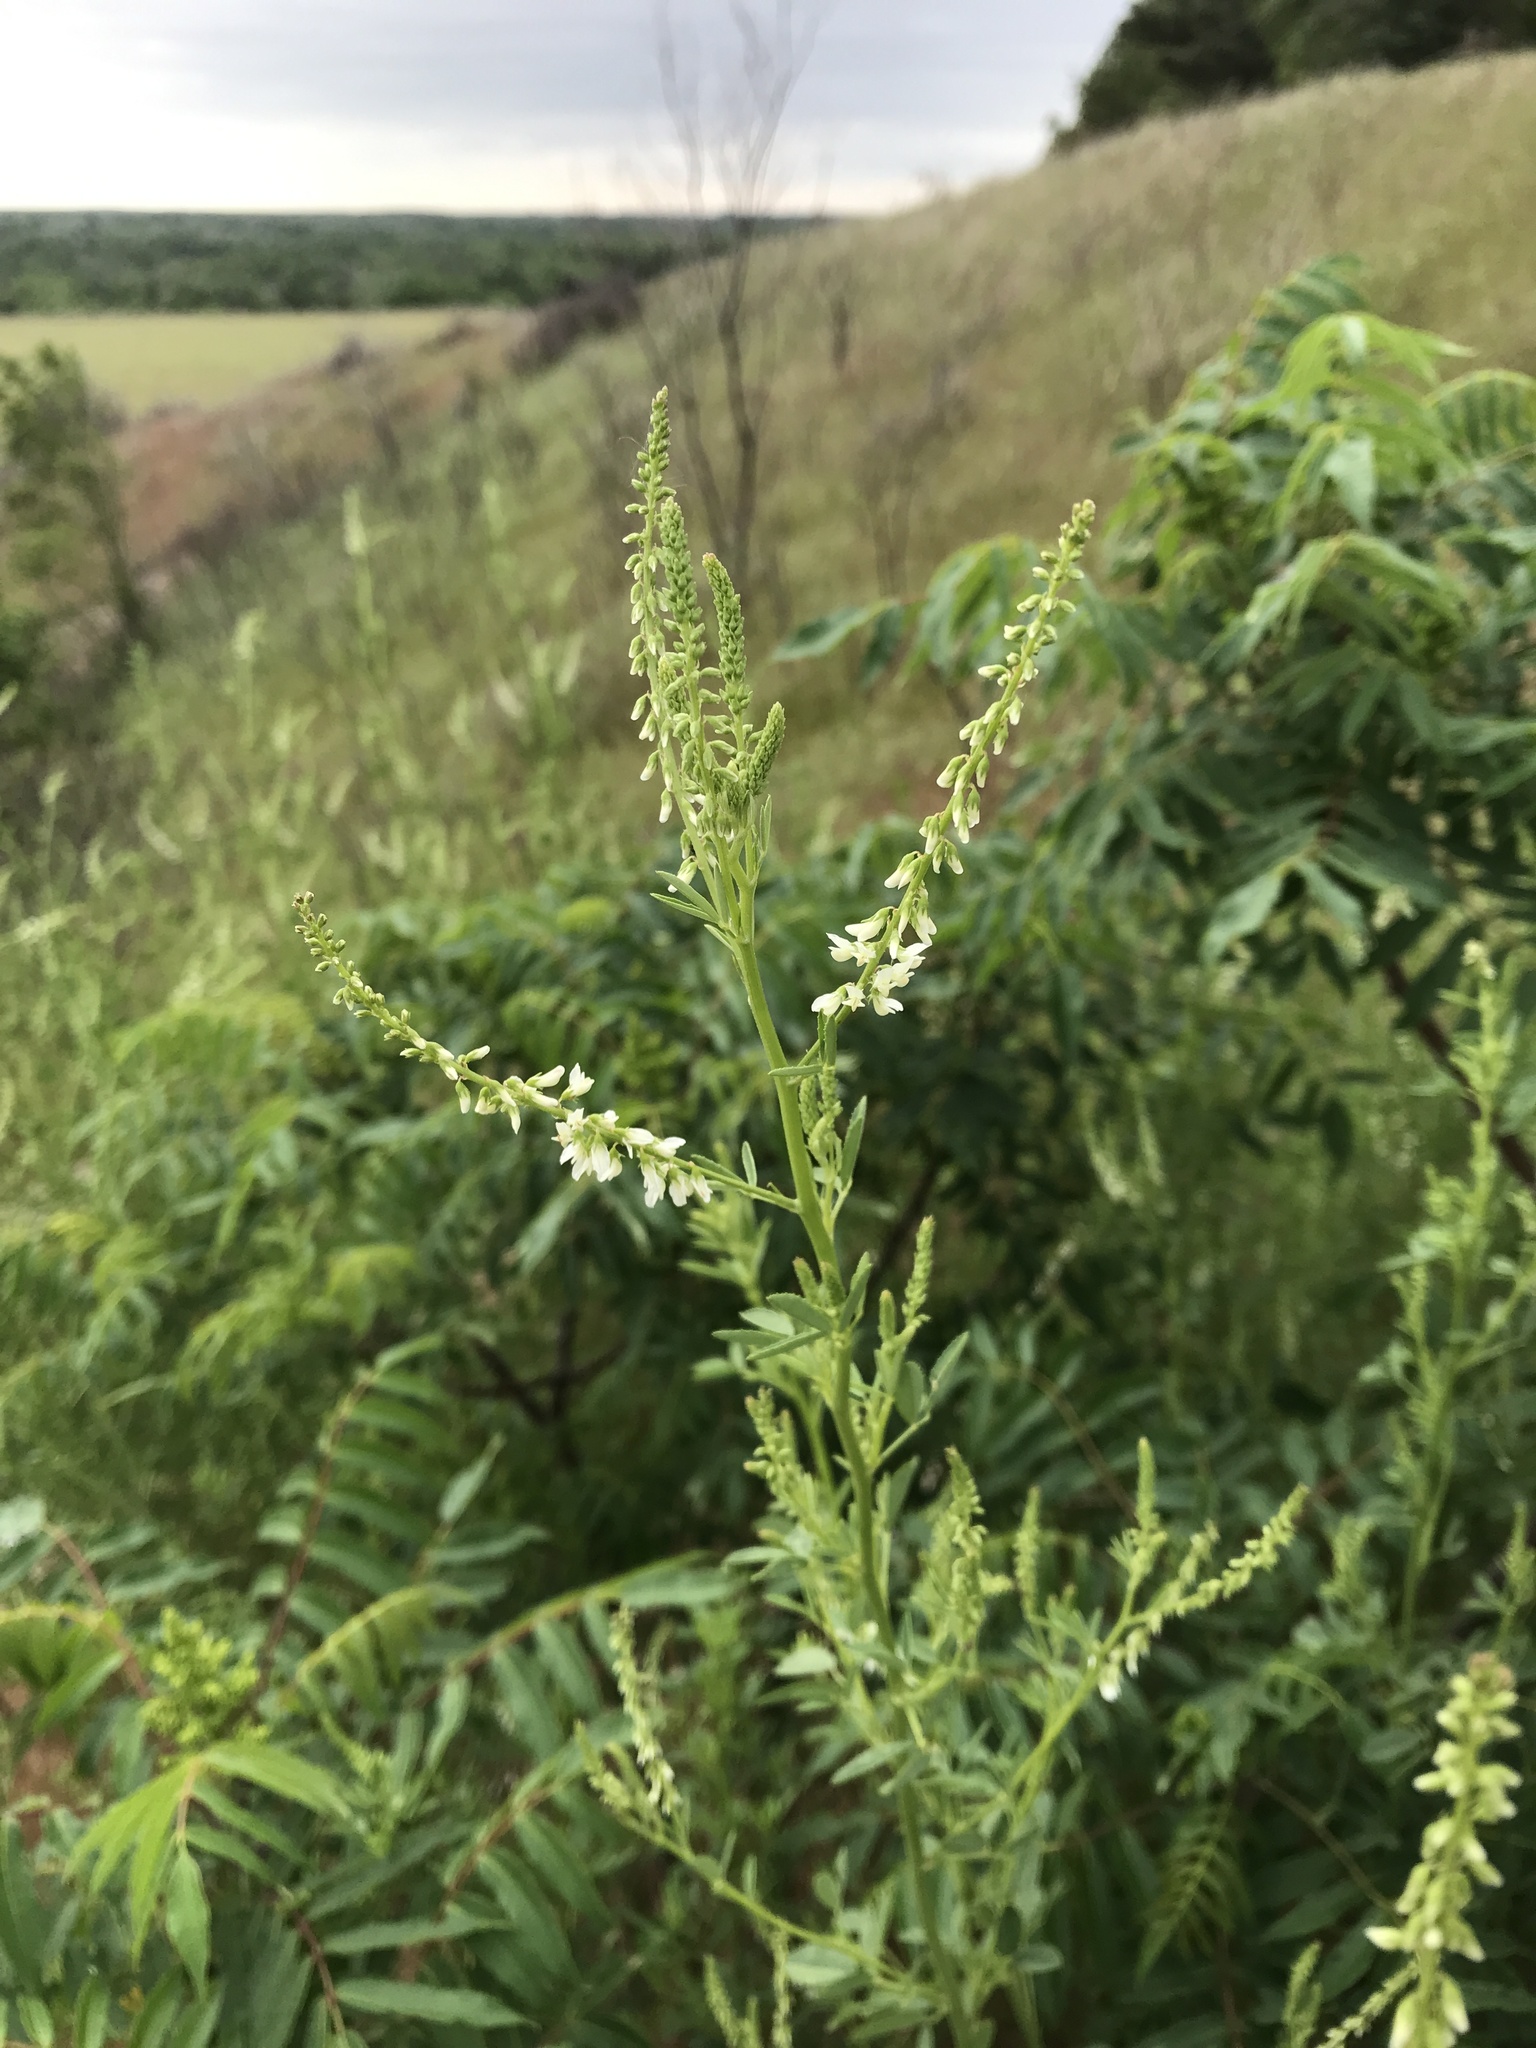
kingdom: Plantae
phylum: Tracheophyta
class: Magnoliopsida
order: Fabales
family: Fabaceae
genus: Melilotus
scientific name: Melilotus albus
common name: White melilot
